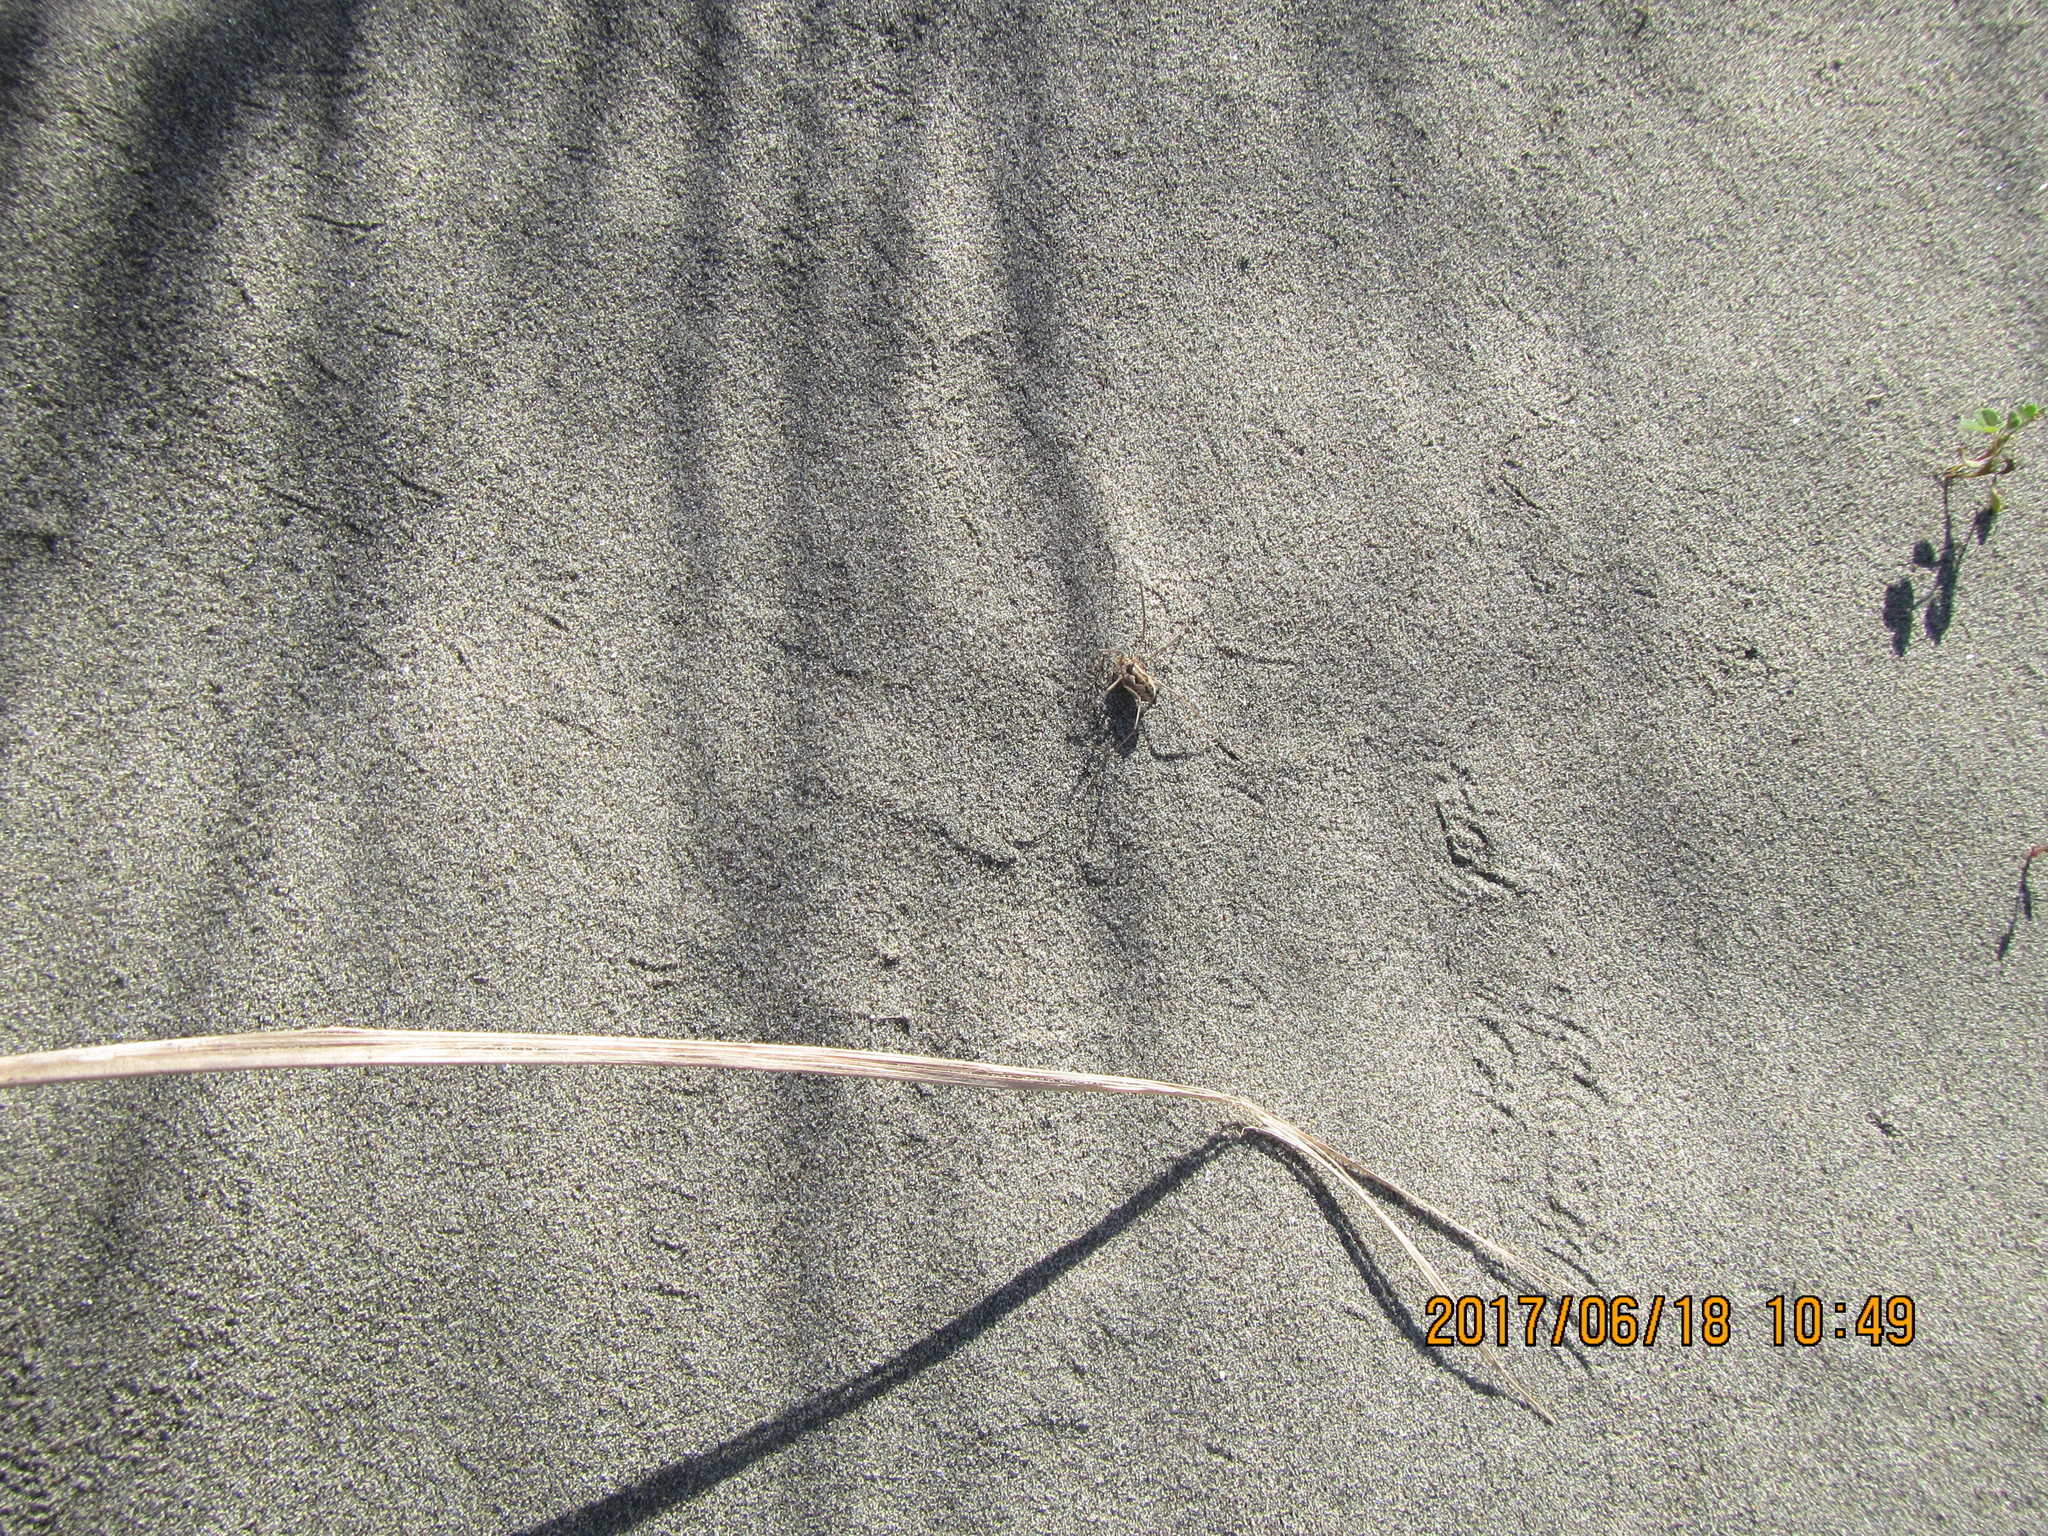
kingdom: Animalia
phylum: Arthropoda
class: Arachnida
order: Opiliones
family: Phalangiidae
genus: Phalangium
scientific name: Phalangium opilio
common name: Daddy longleg
